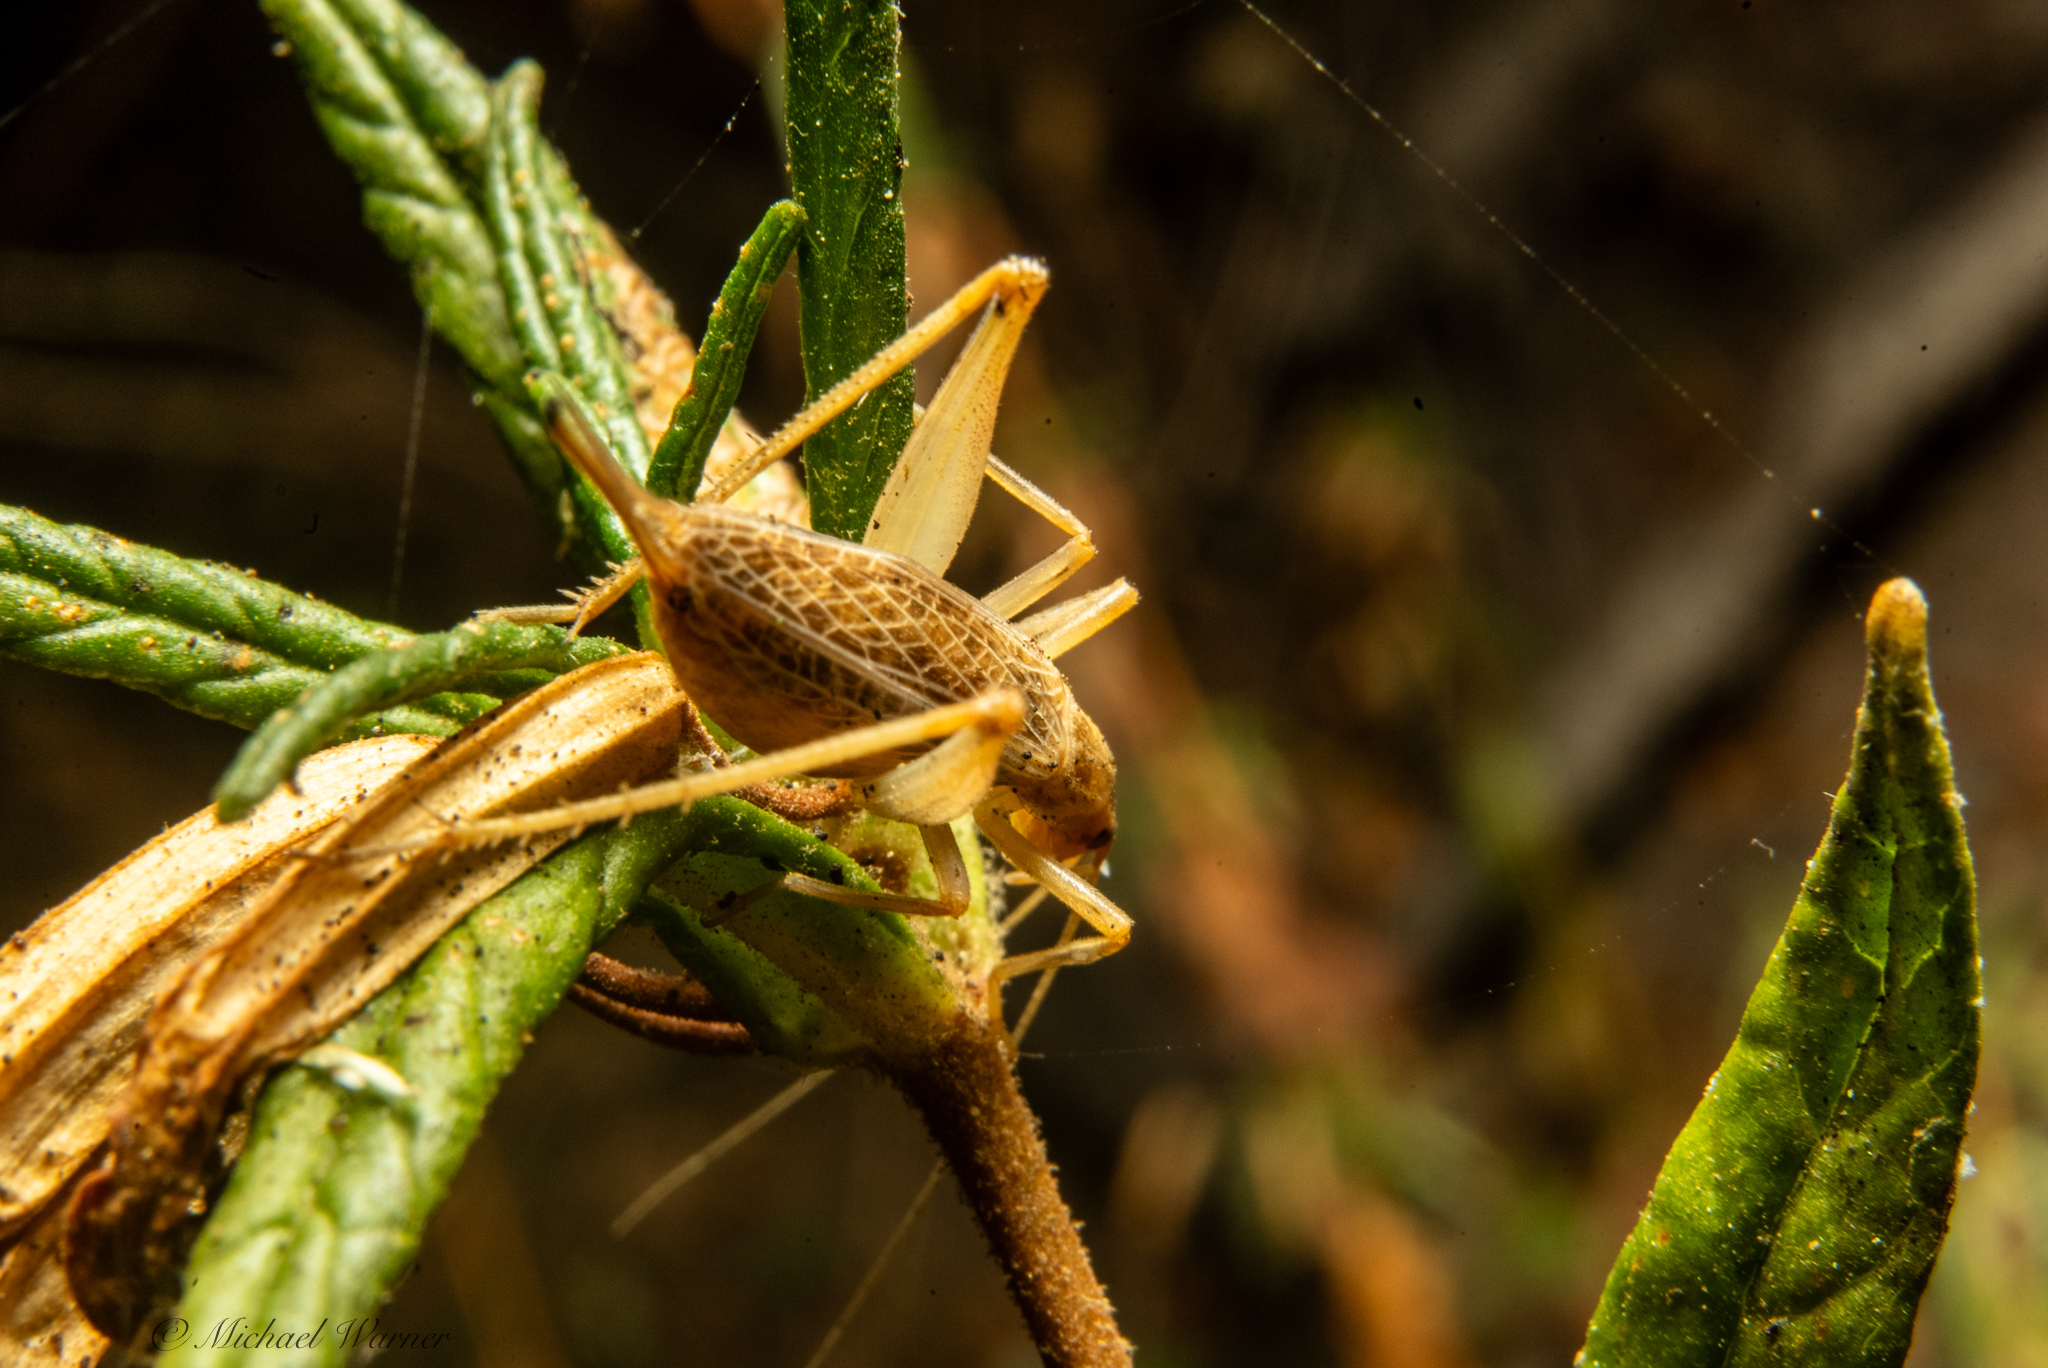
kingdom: Animalia
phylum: Arthropoda
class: Insecta
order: Orthoptera
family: Gryllidae
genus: Oecanthus
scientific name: Oecanthus californicus
